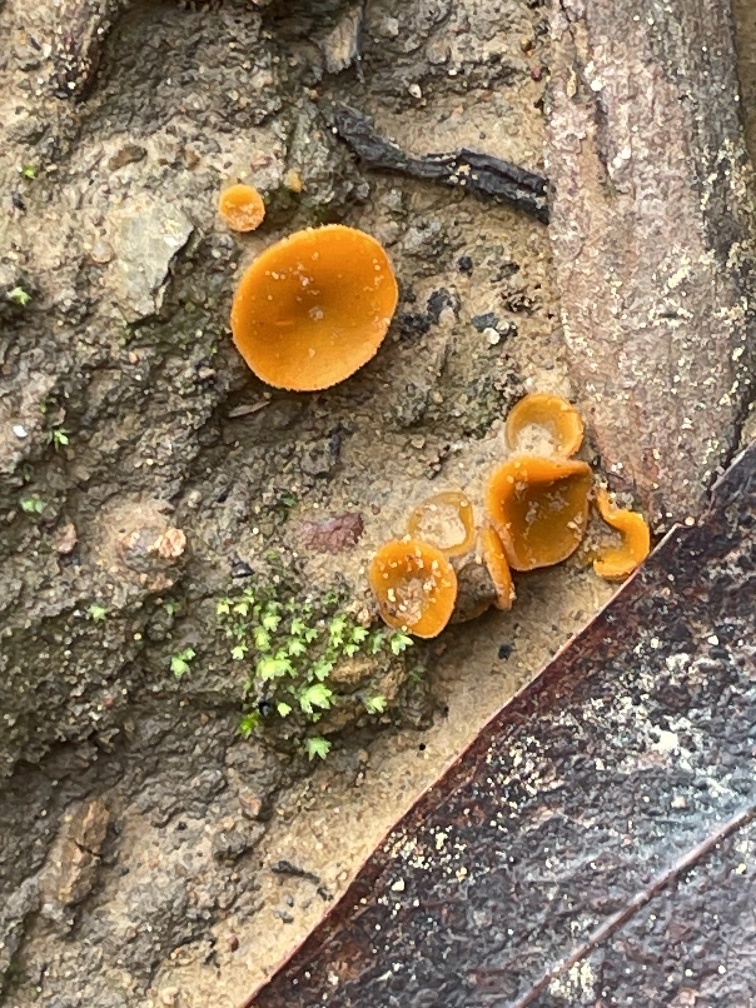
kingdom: Fungi
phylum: Ascomycota
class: Pezizomycetes
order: Pezizales
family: Pyronemataceae
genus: Geopyxis
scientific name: Geopyxis deceptiva
